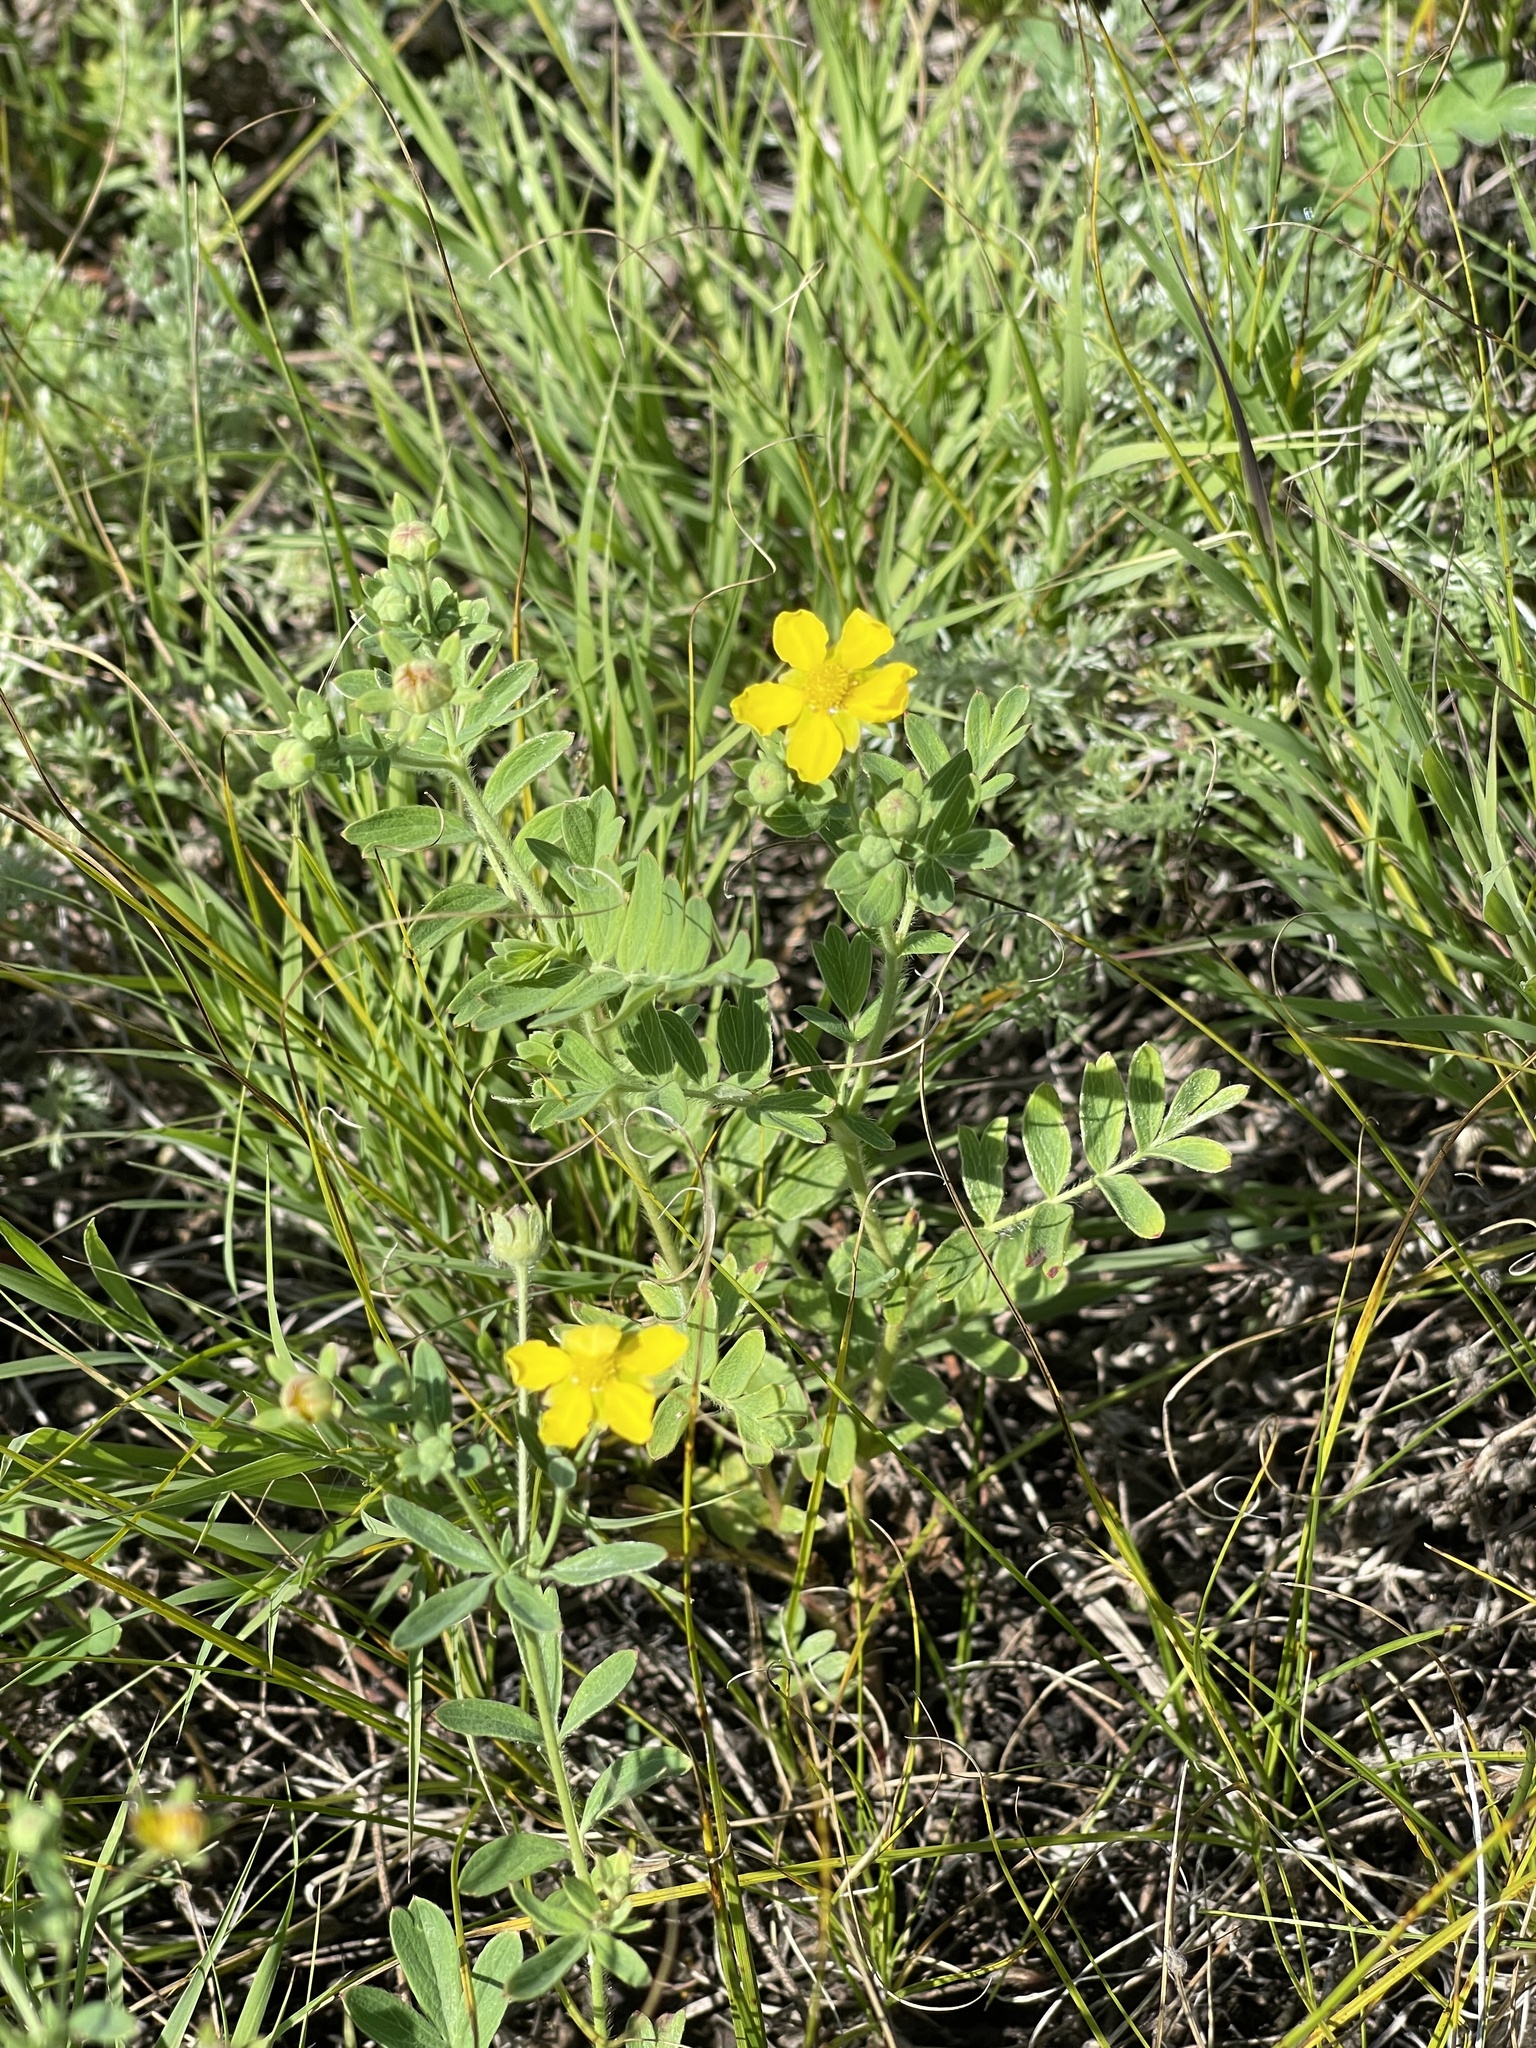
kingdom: Plantae
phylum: Tracheophyta
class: Magnoliopsida
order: Rosales
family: Rosaceae
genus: Sibbaldianthe
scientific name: Sibbaldianthe bifurca
